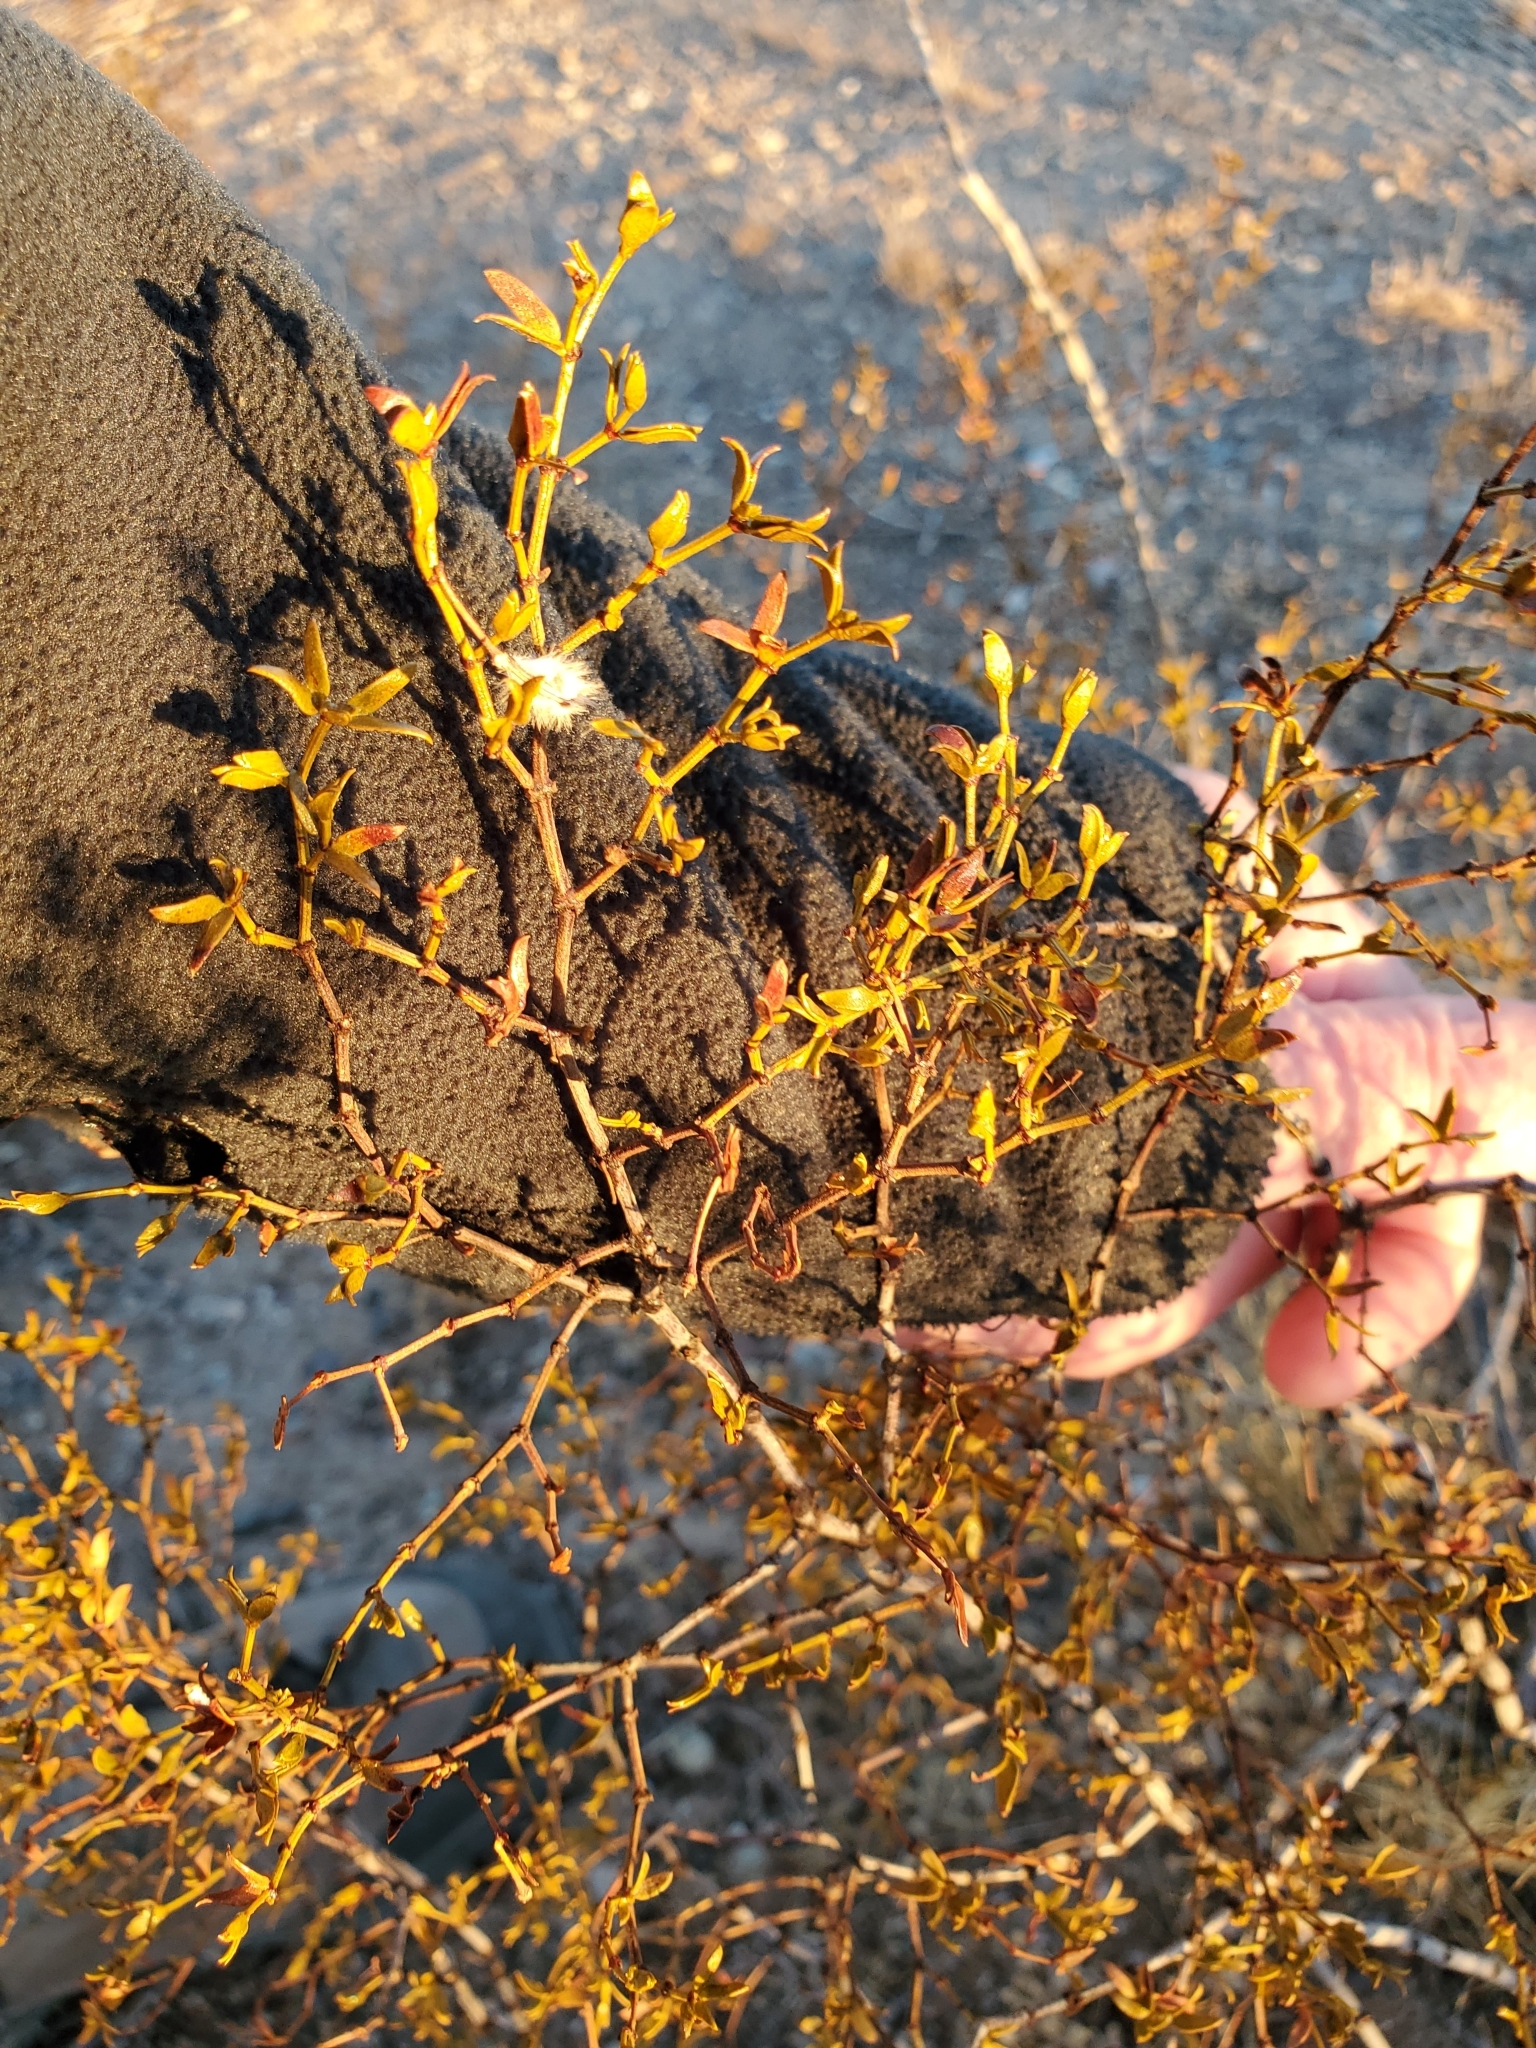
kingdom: Plantae
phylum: Tracheophyta
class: Magnoliopsida
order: Zygophyllales
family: Zygophyllaceae
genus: Larrea
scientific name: Larrea tridentata
